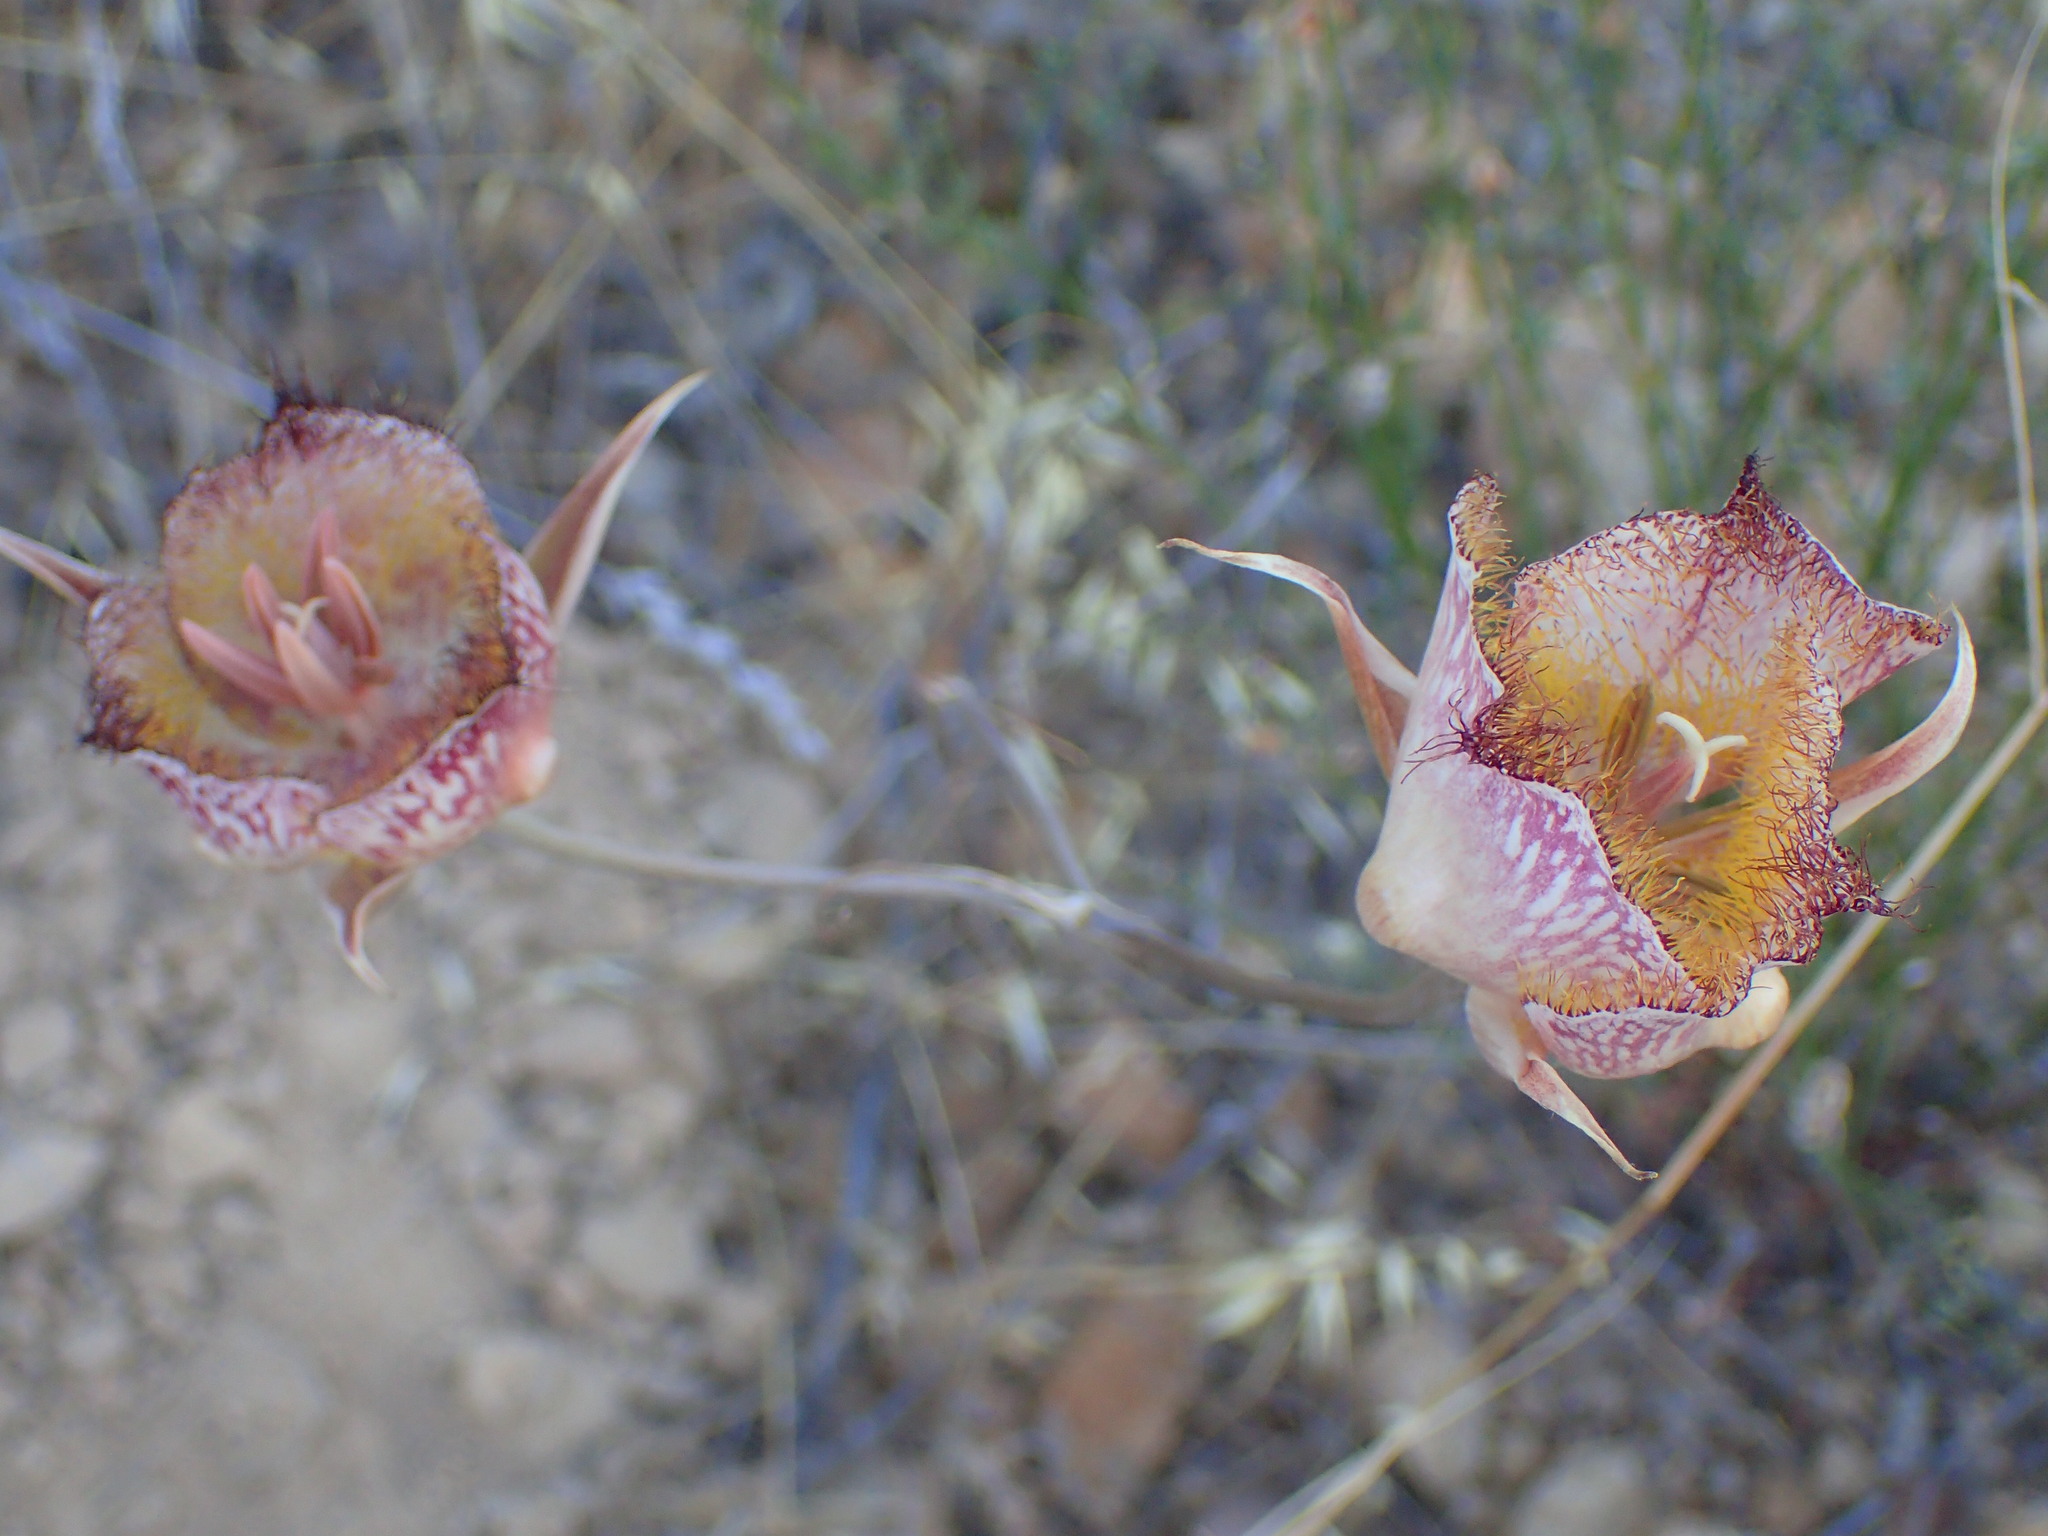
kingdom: Plantae
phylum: Tracheophyta
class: Liliopsida
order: Liliales
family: Liliaceae
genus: Calochortus
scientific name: Calochortus fimbriatus
